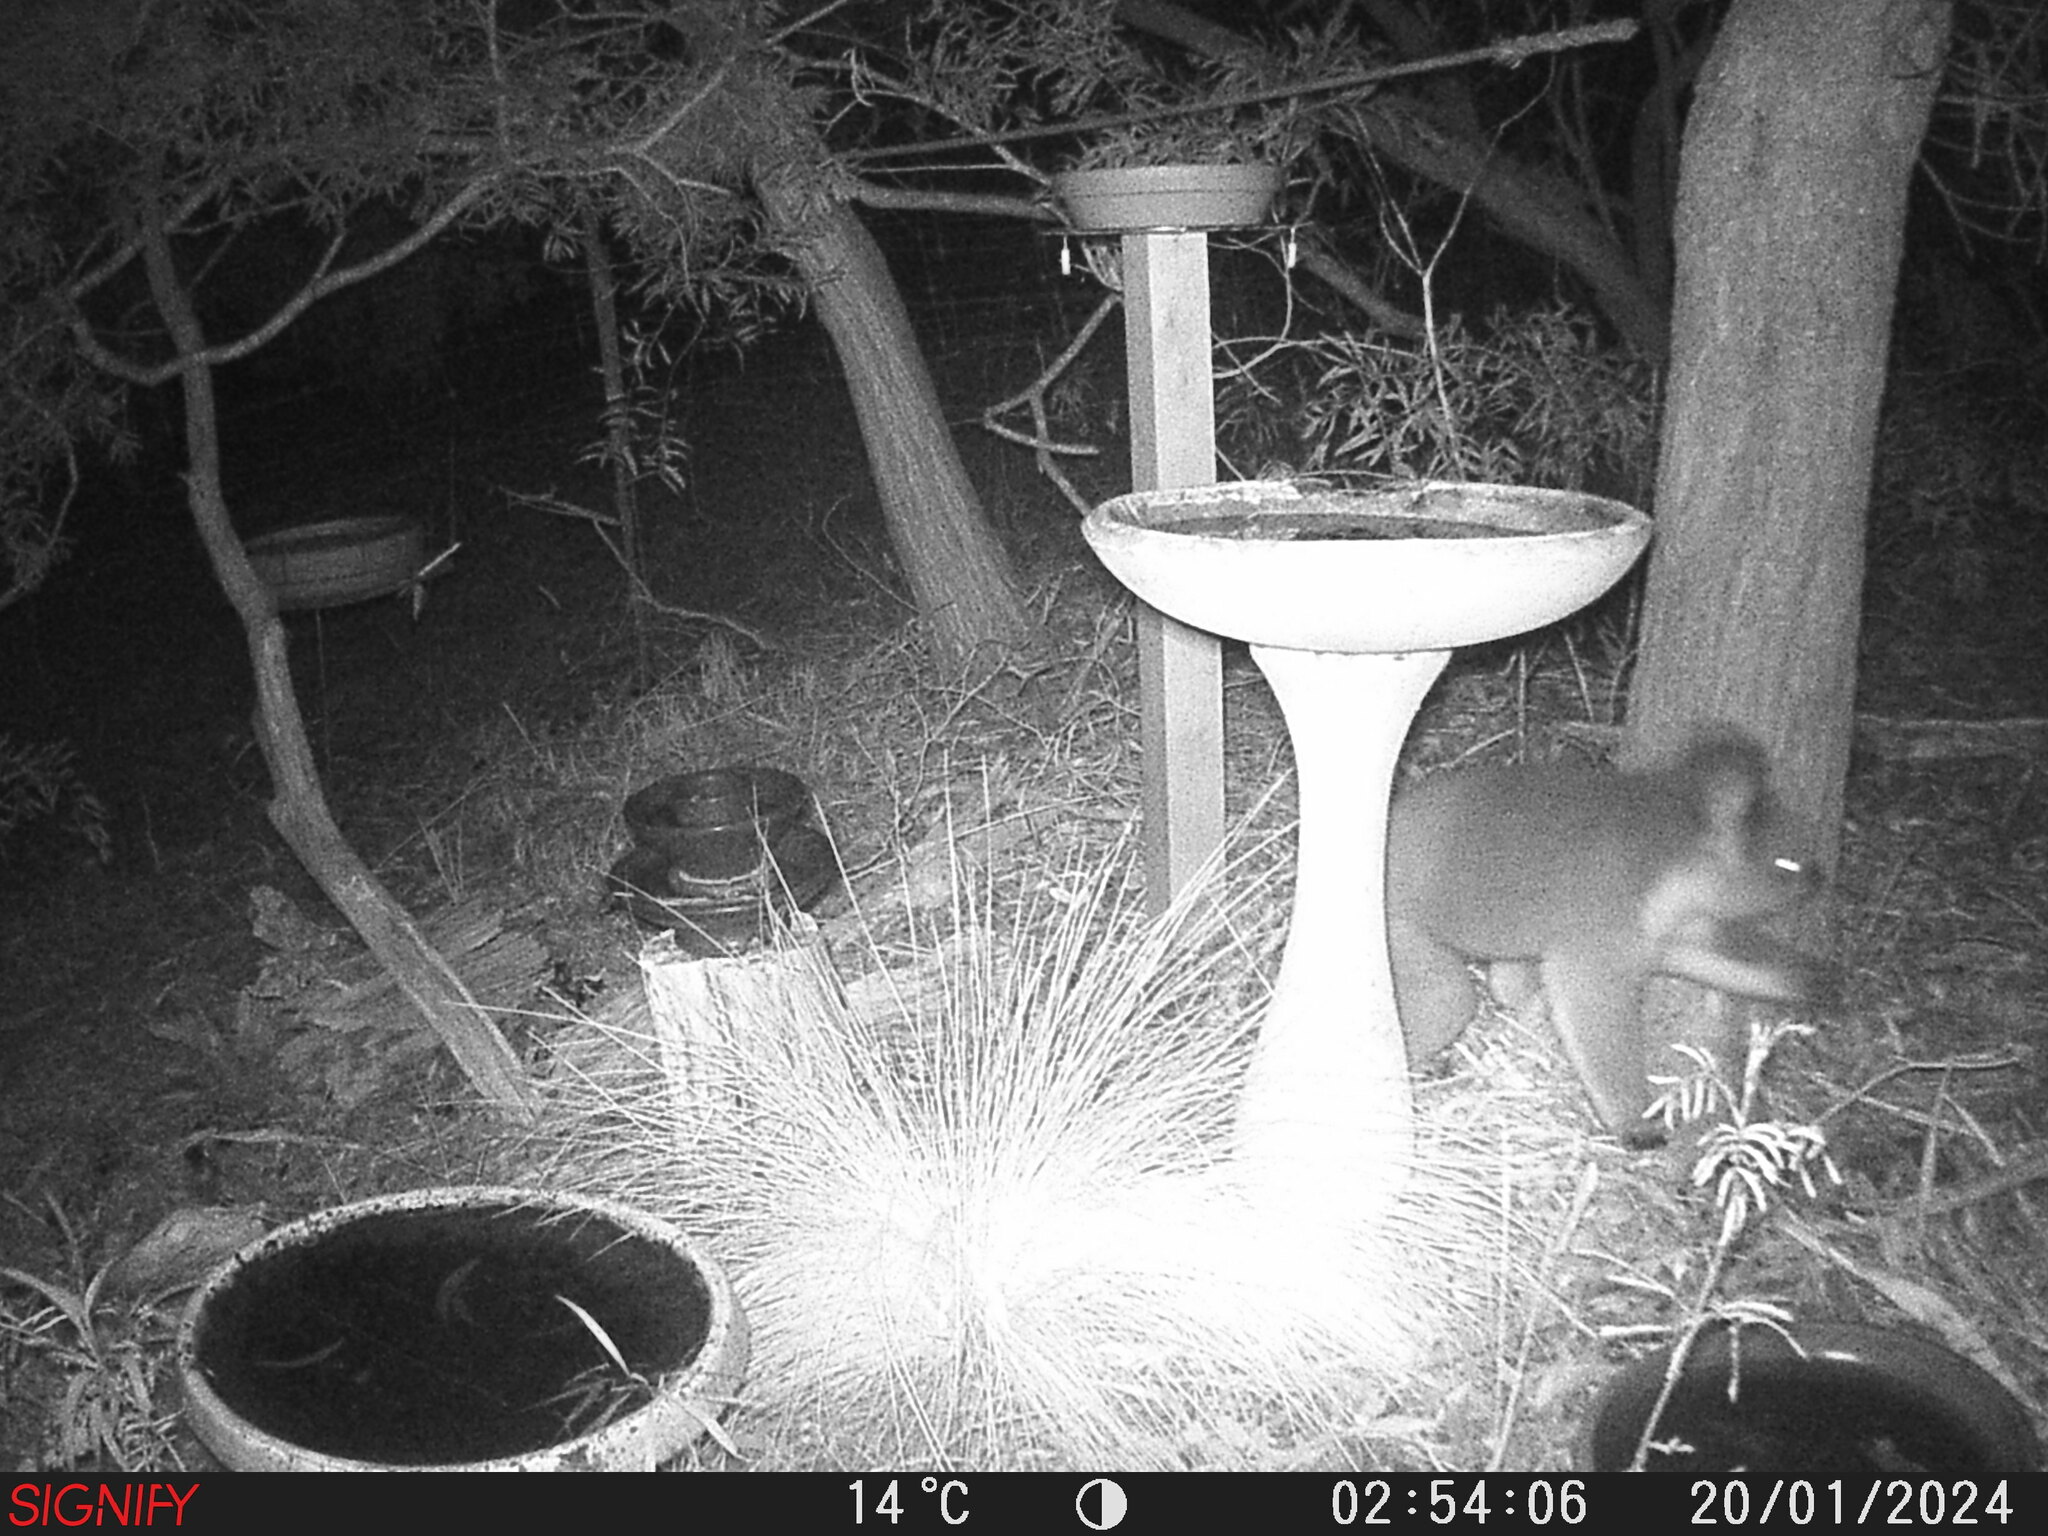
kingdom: Animalia
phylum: Chordata
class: Mammalia
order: Diprotodontia
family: Phascolarctidae
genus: Phascolarctos
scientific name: Phascolarctos cinereus
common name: Koala
